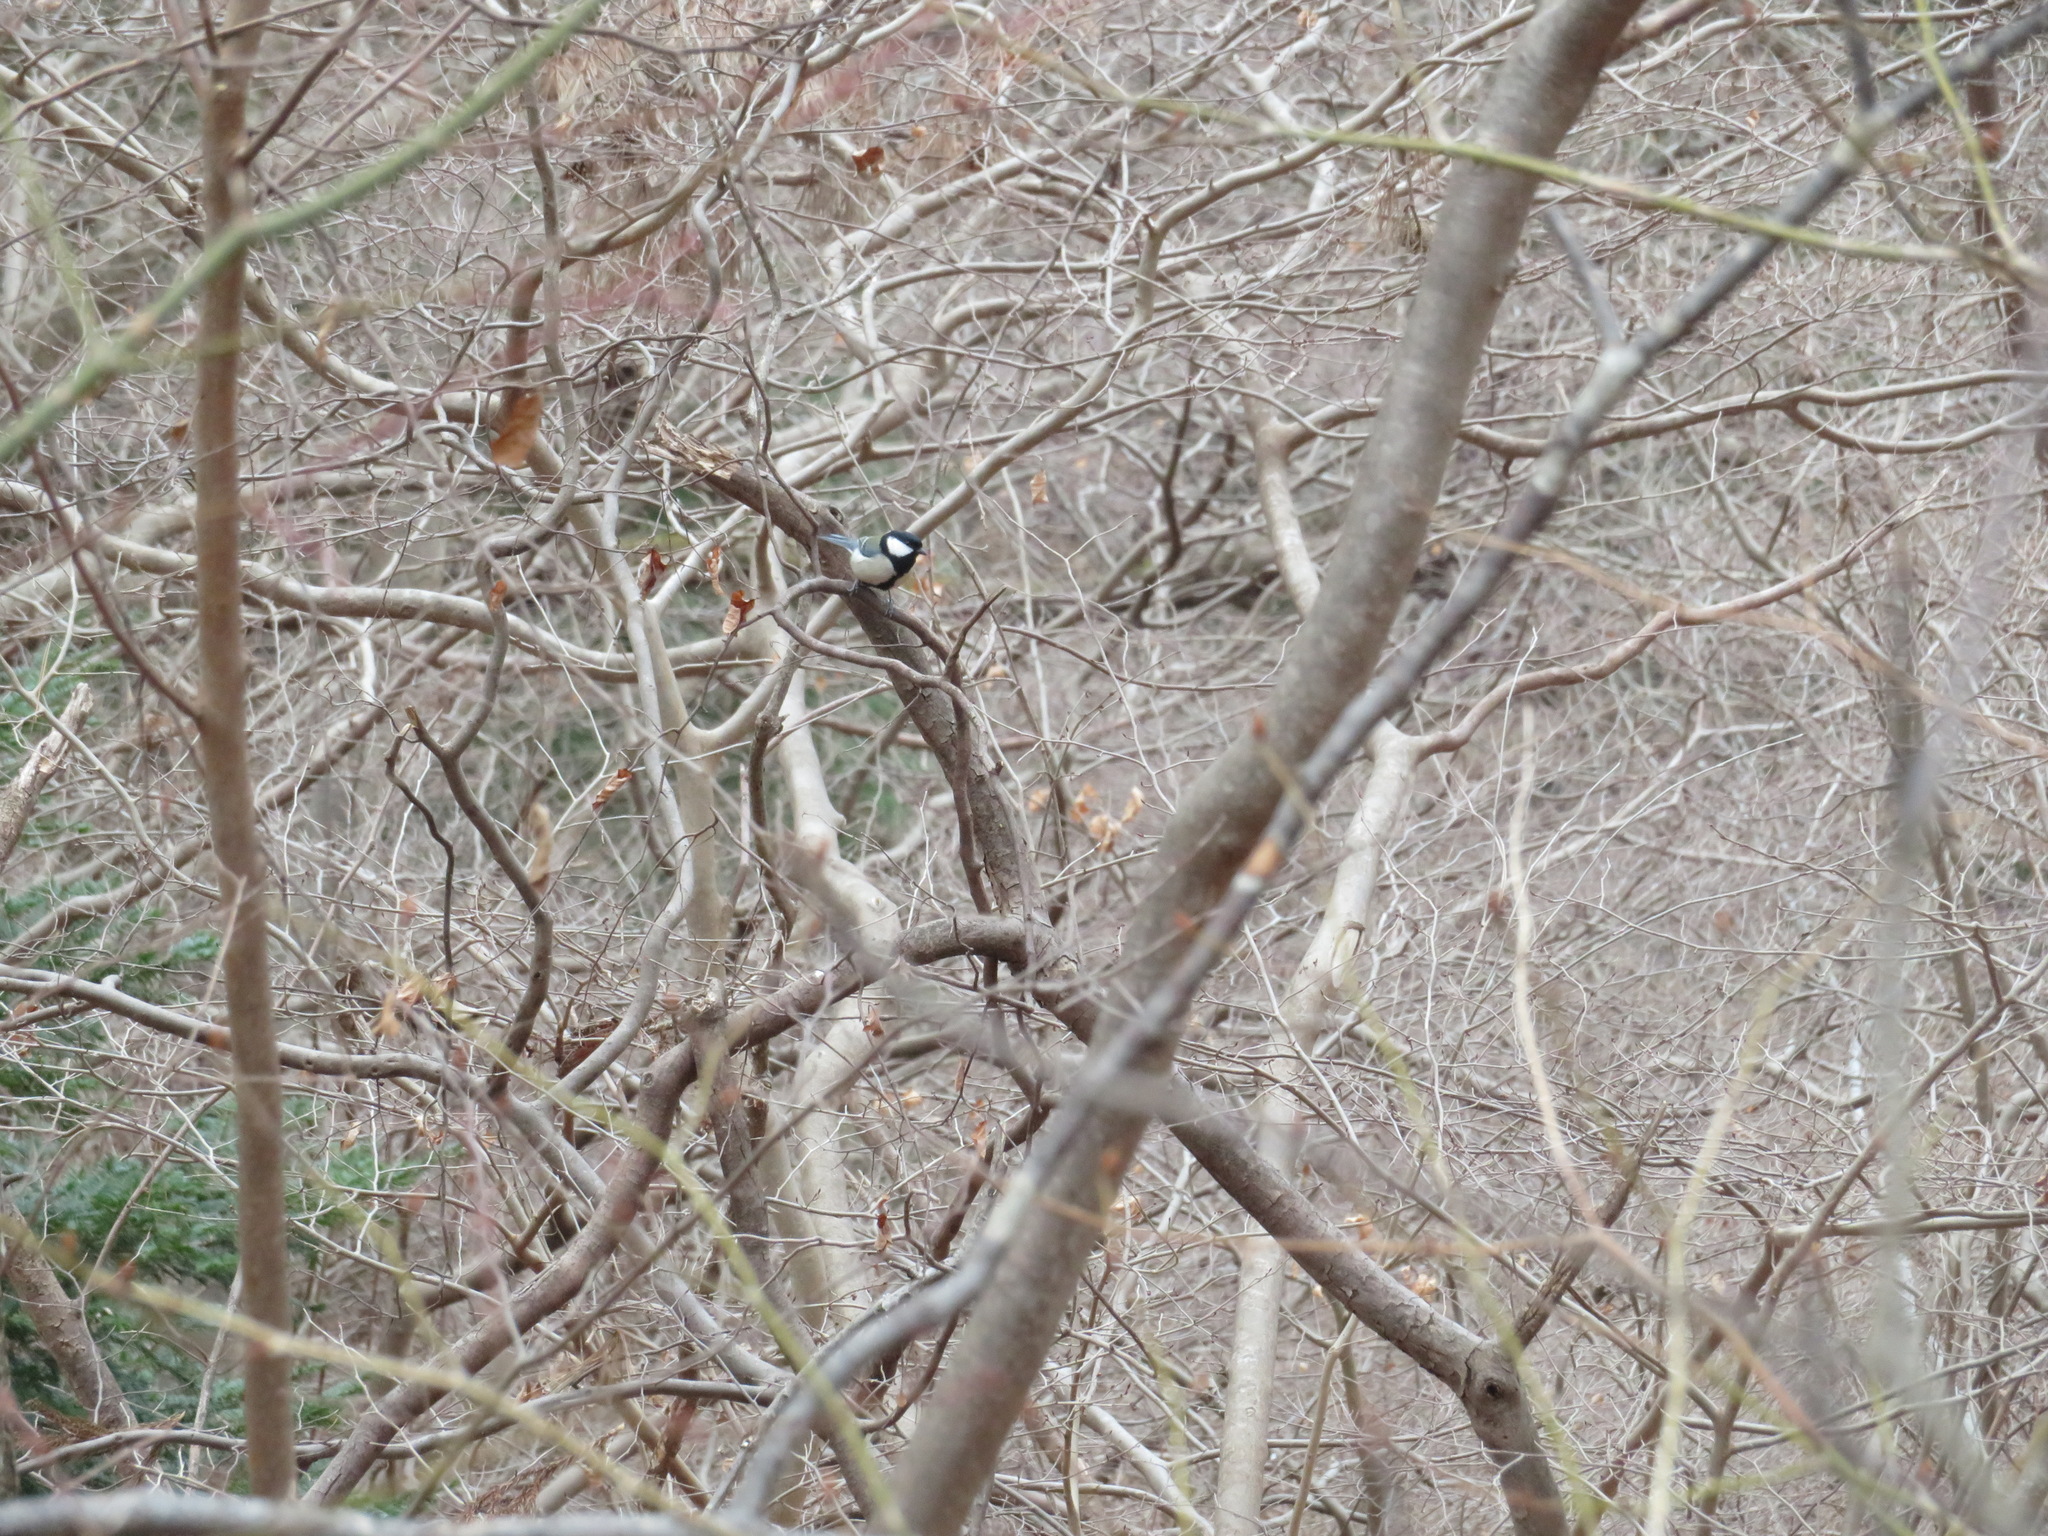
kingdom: Animalia
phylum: Chordata
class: Aves
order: Passeriformes
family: Paridae
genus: Parus
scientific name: Parus minor
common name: Japanese tit
